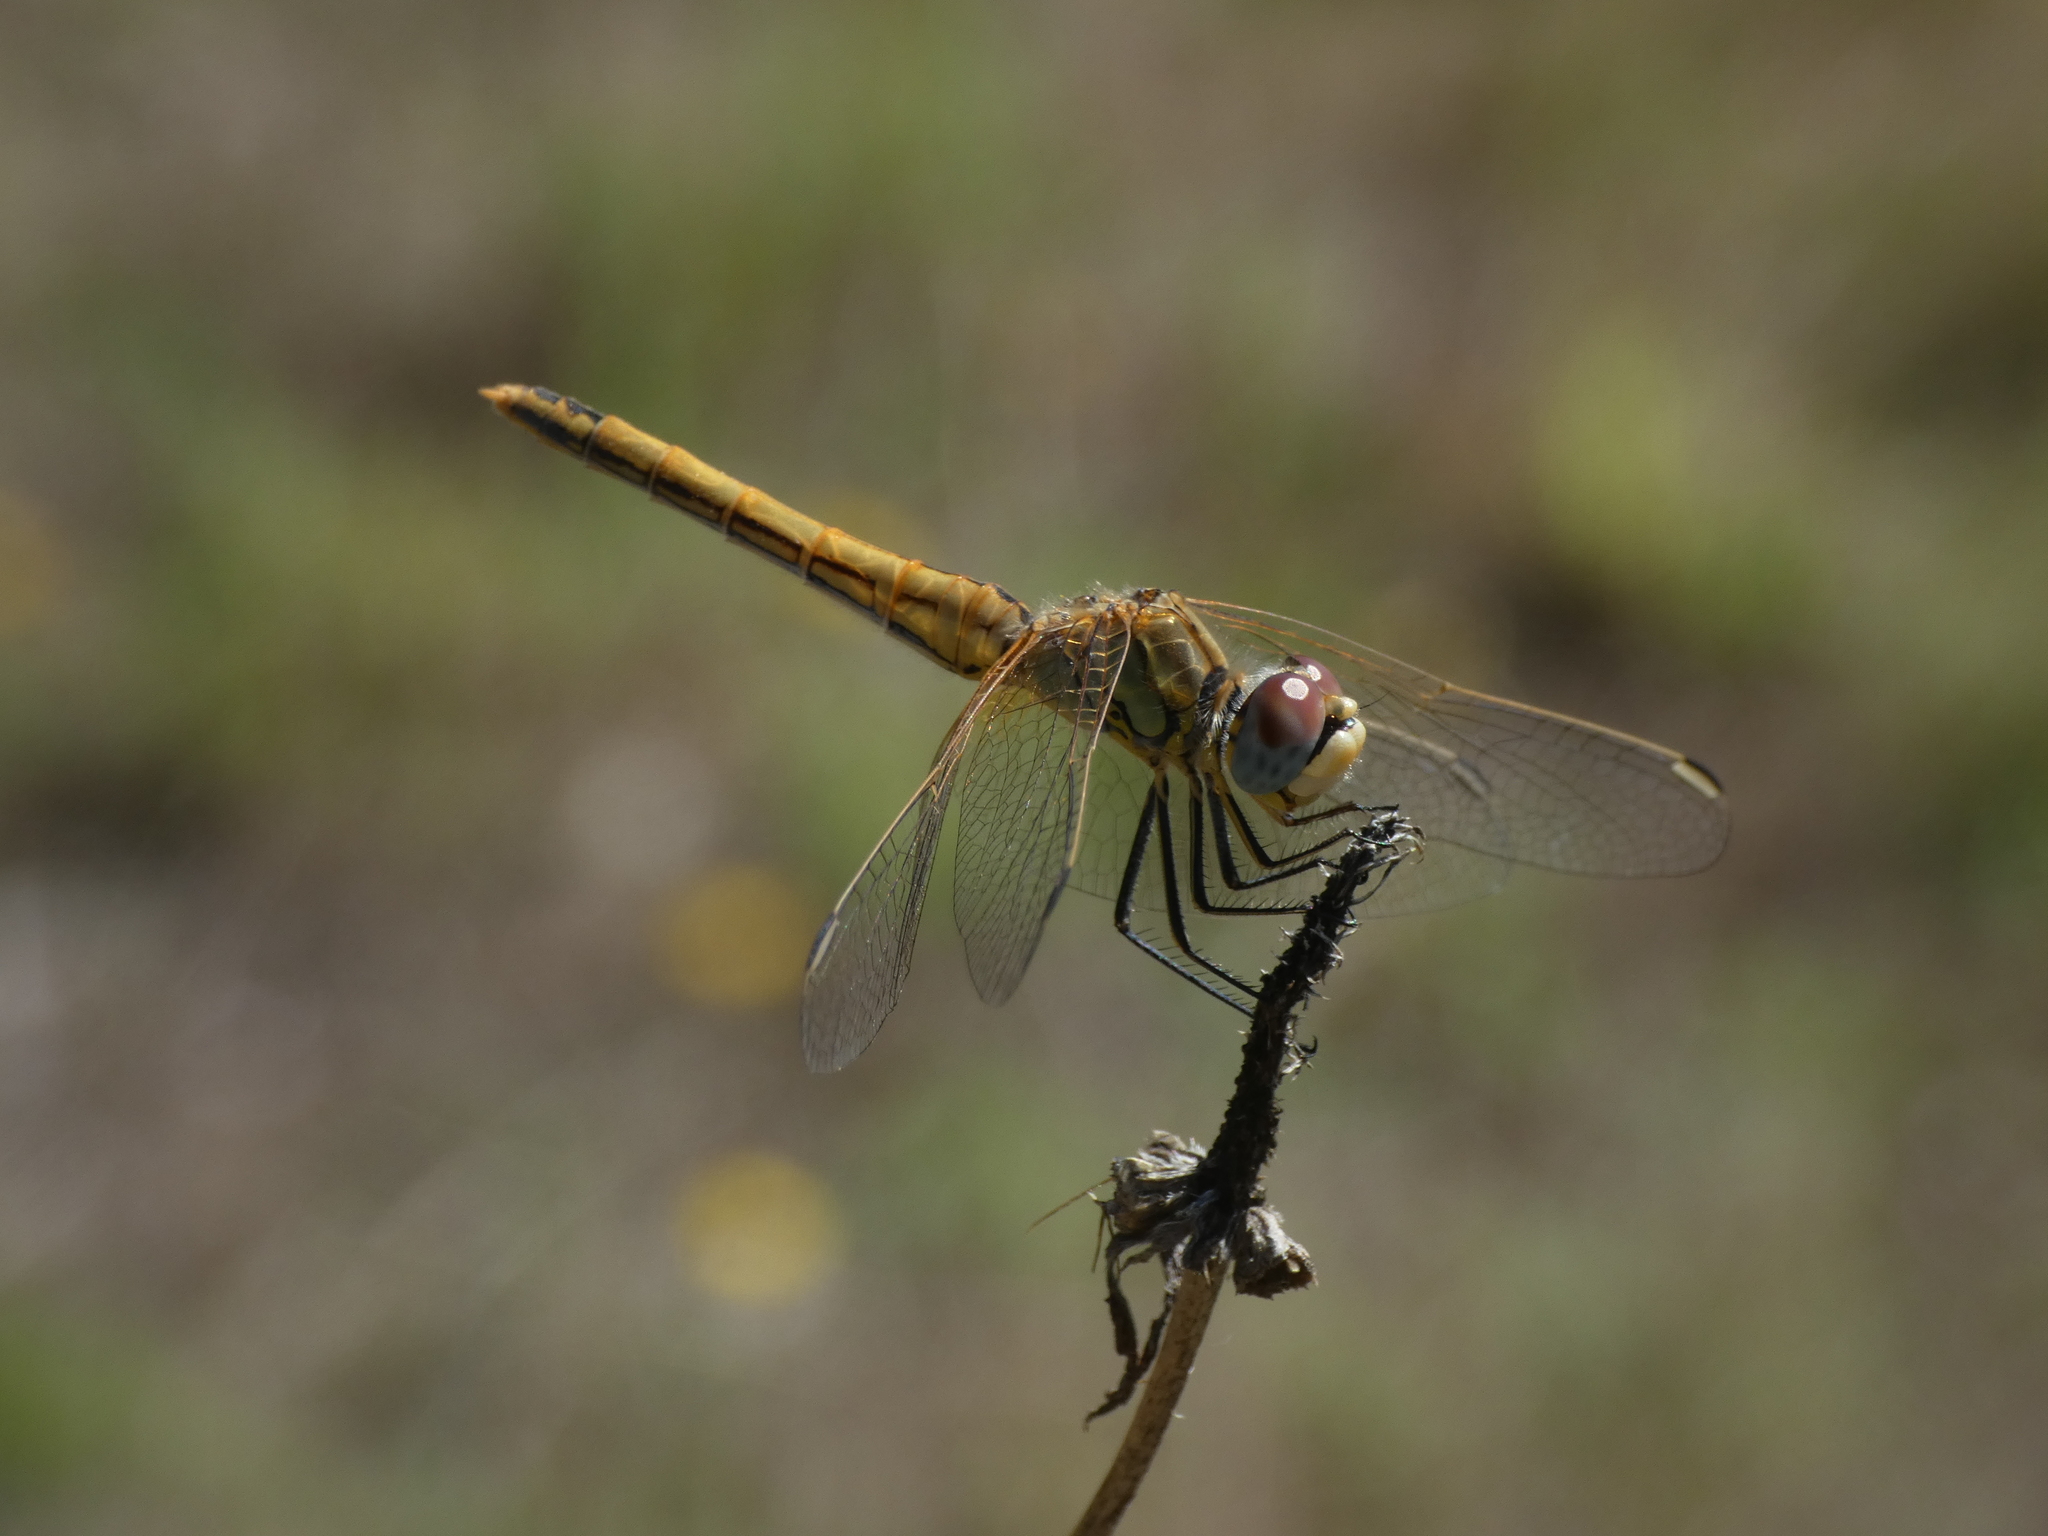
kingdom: Animalia
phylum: Arthropoda
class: Insecta
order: Odonata
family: Libellulidae
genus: Sympetrum
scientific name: Sympetrum fonscolombii
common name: Red-veined darter
